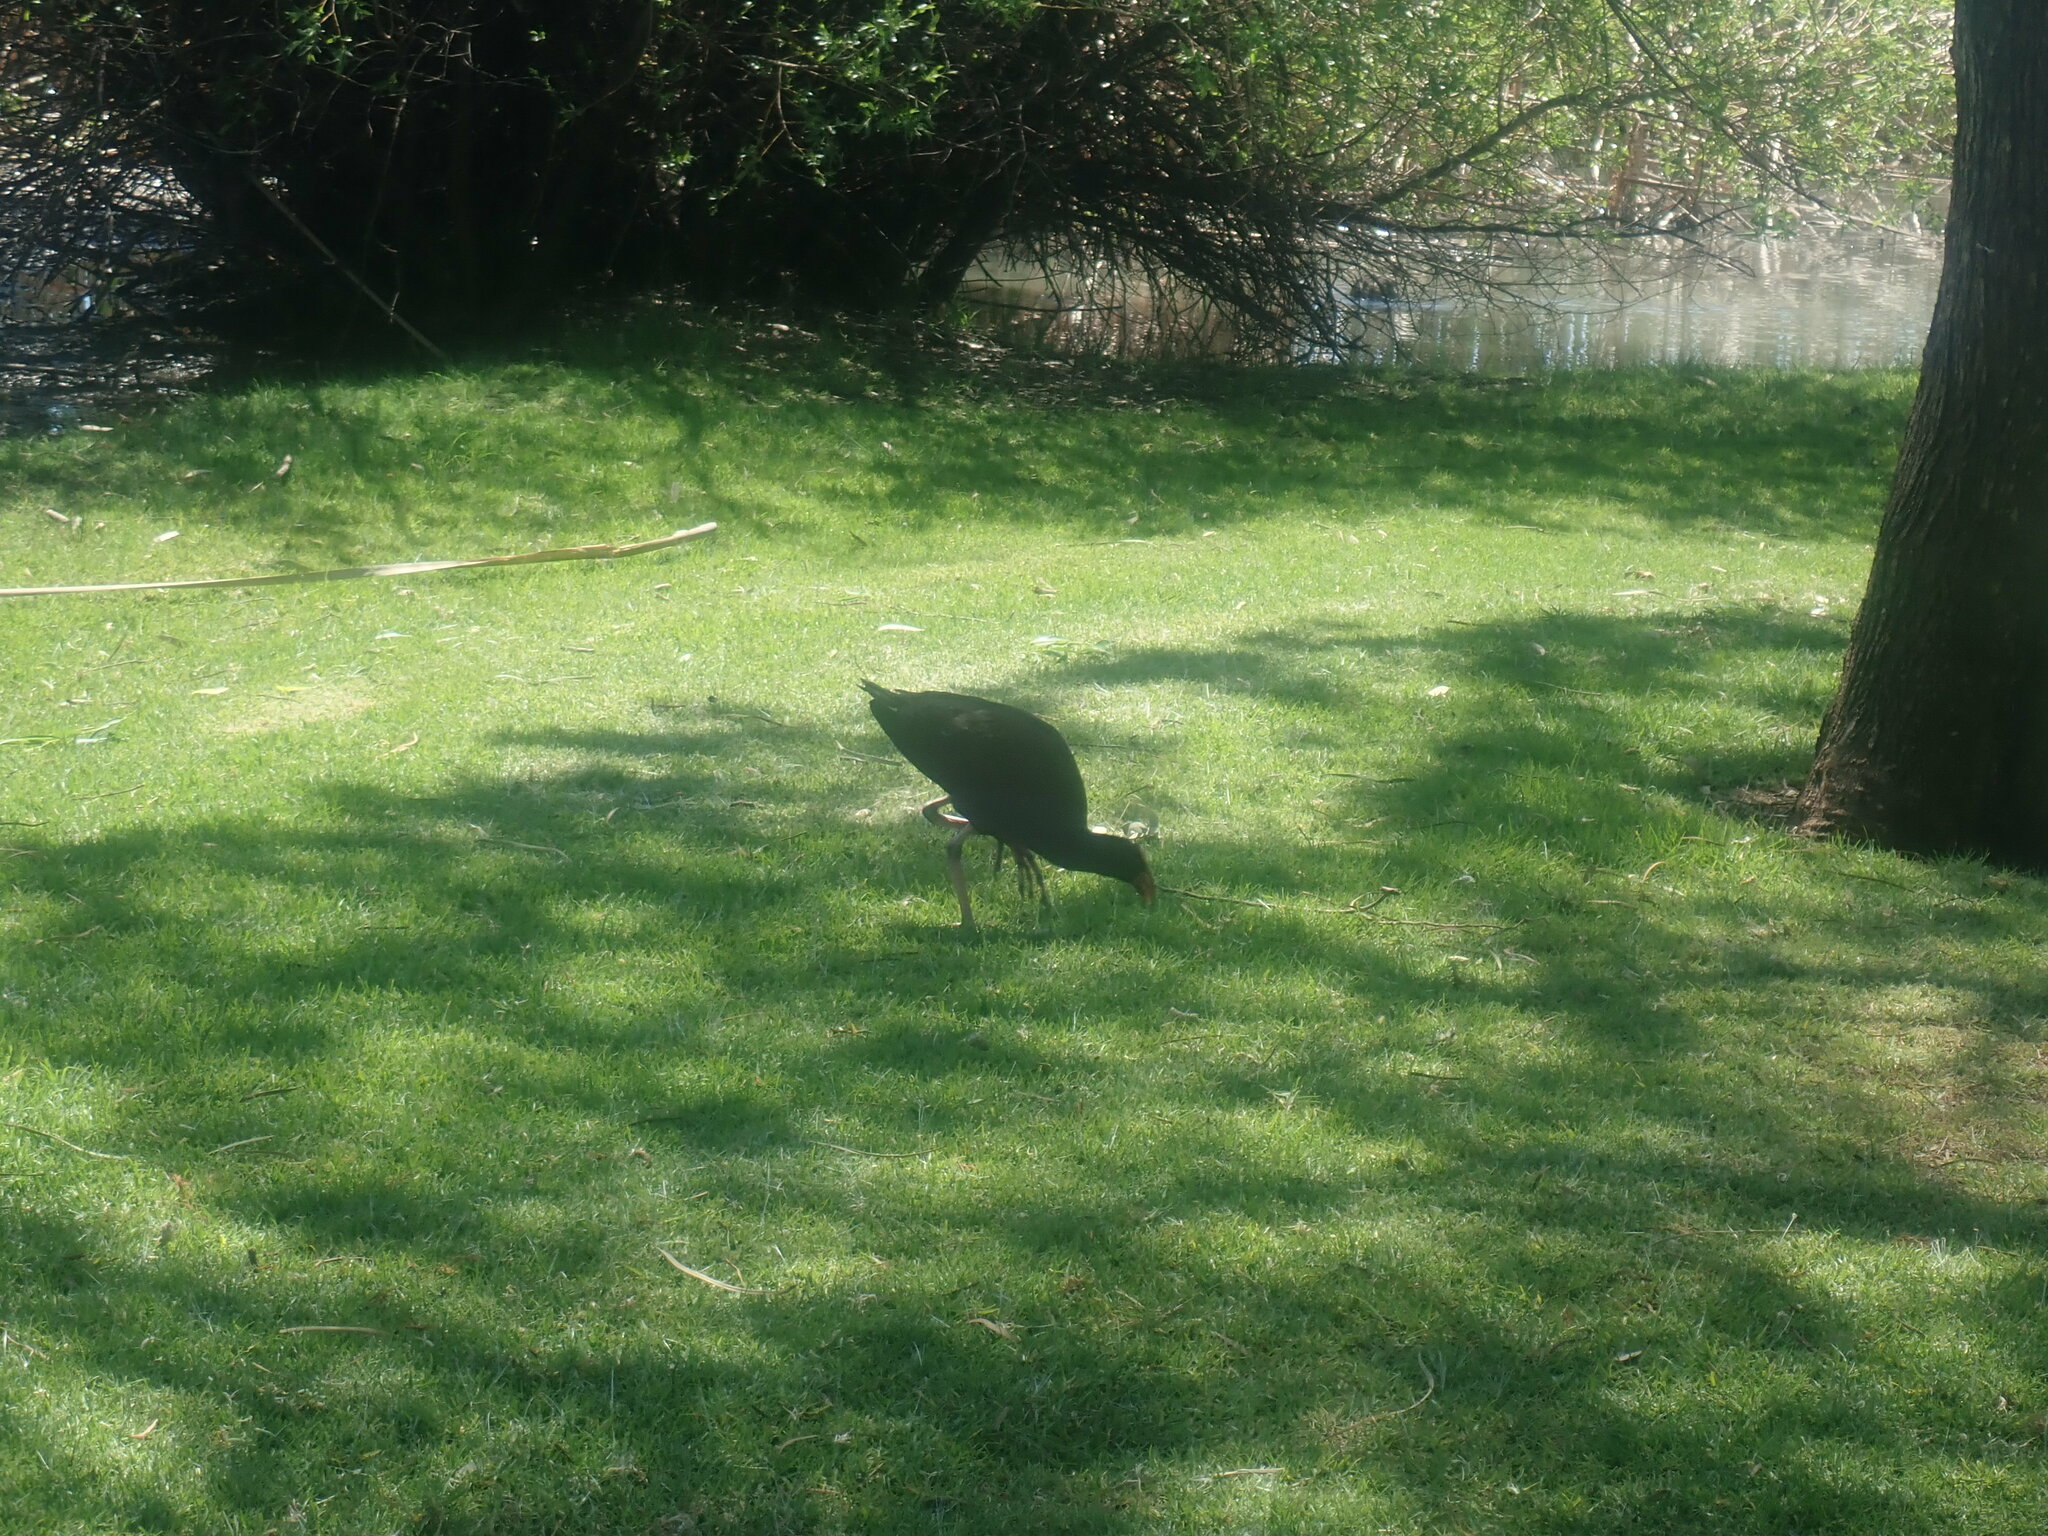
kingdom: Animalia
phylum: Chordata
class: Aves
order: Gruiformes
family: Rallidae
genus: Porphyrio
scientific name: Porphyrio melanotus
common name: Australasian swamphen
